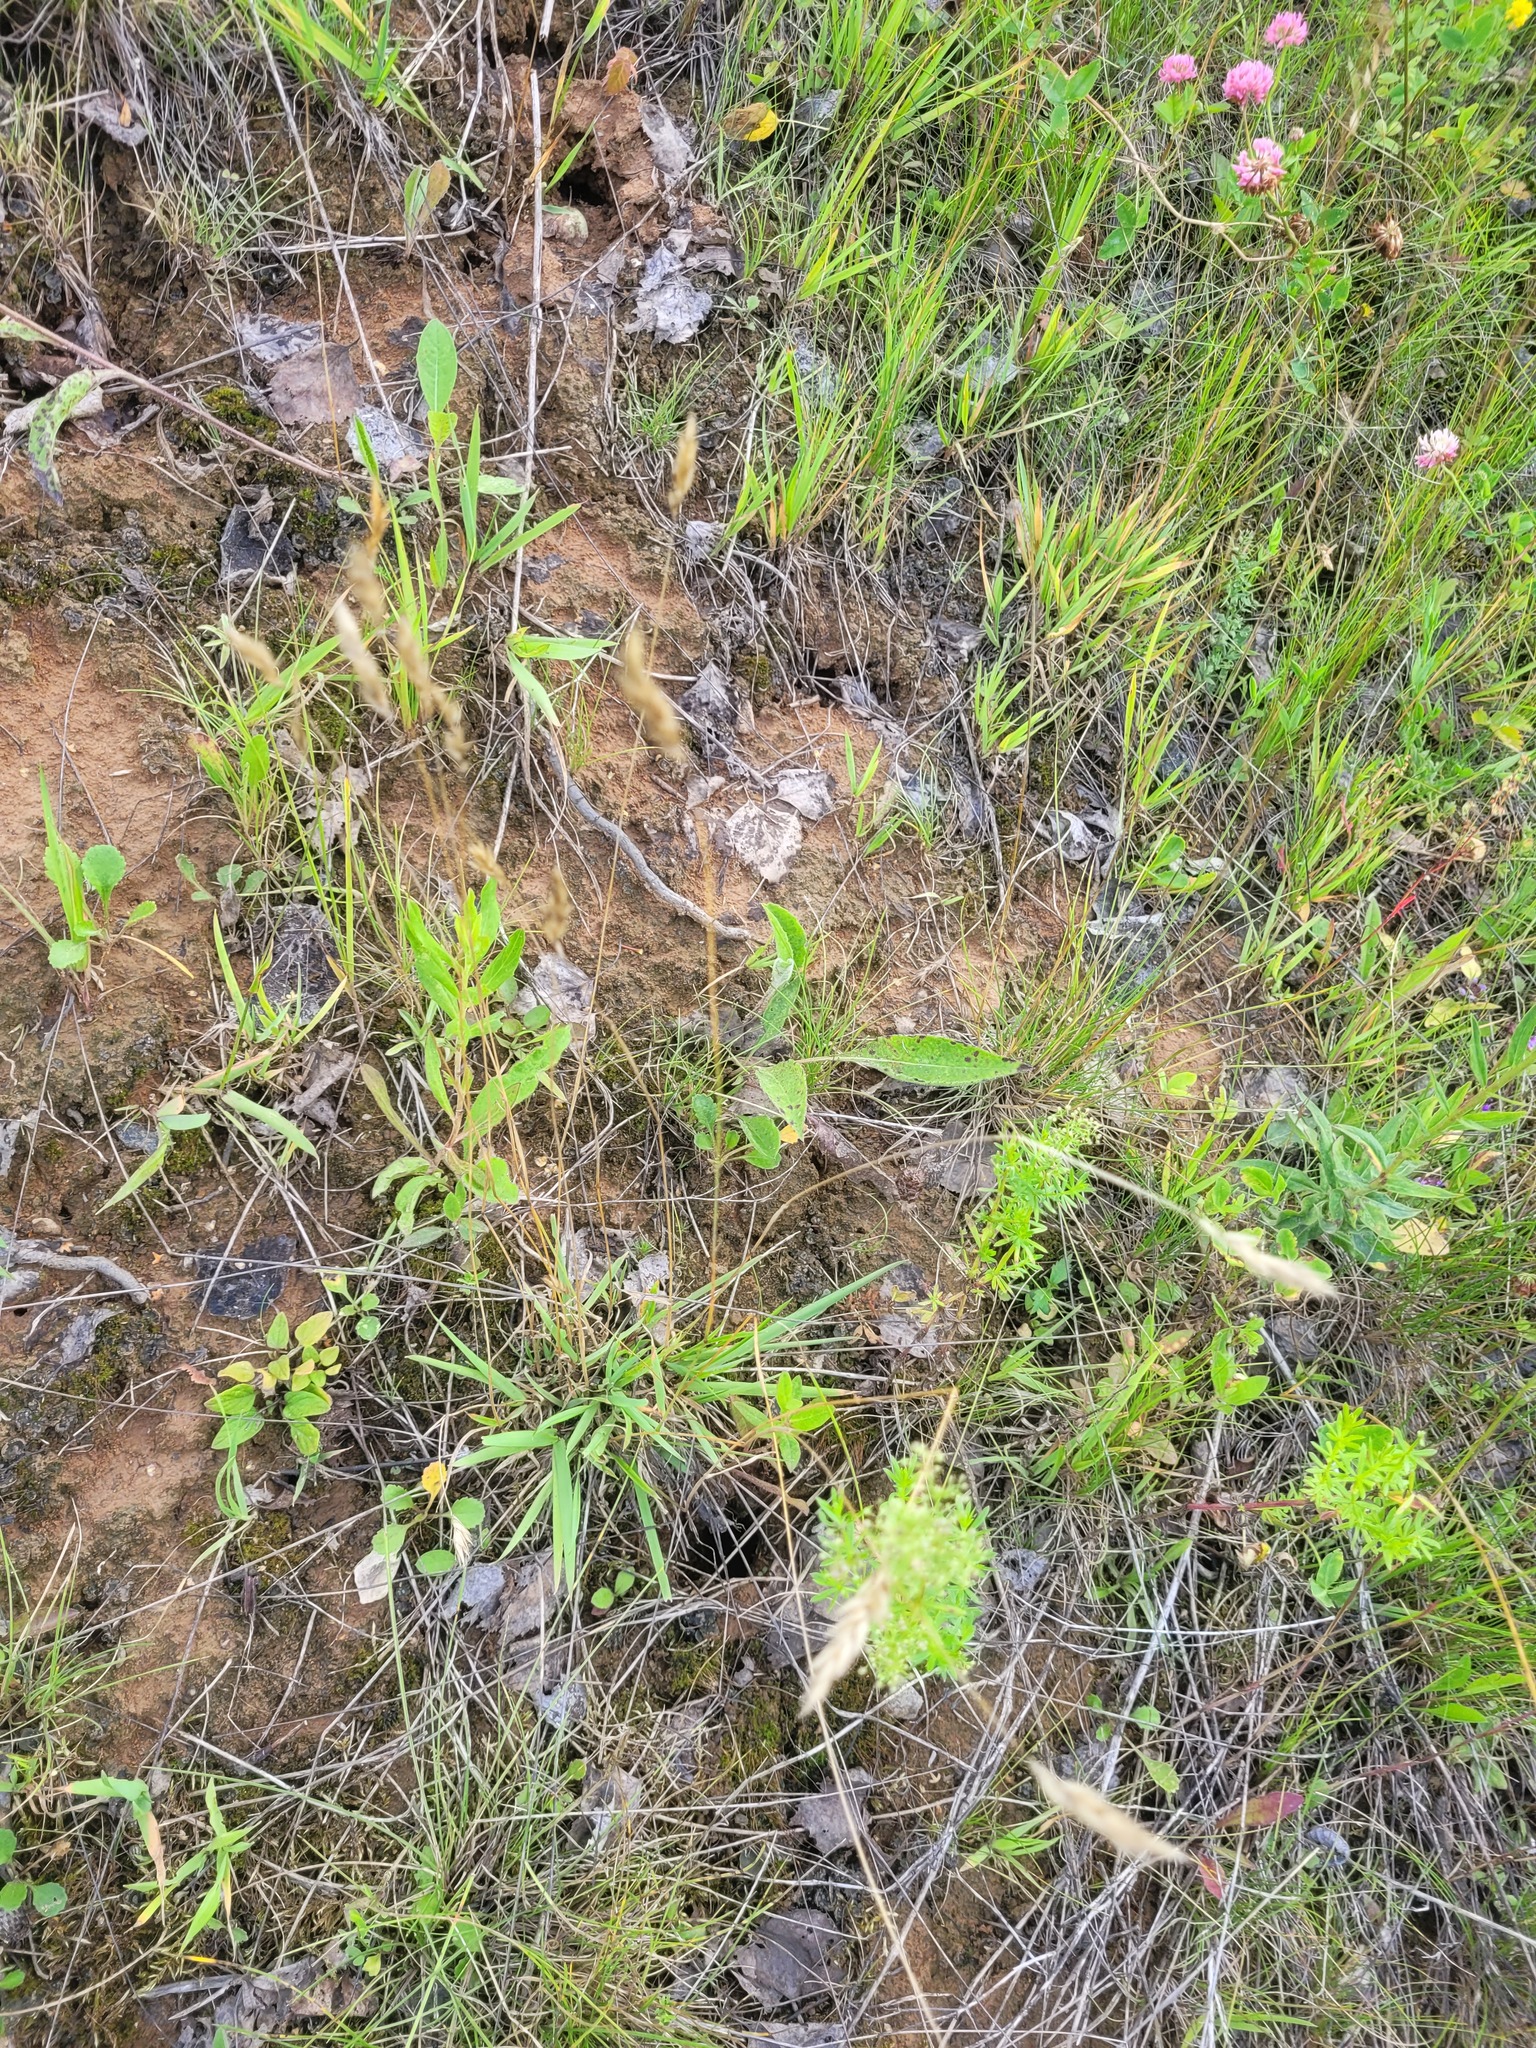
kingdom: Plantae
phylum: Tracheophyta
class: Liliopsida
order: Poales
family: Poaceae
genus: Anthoxanthum
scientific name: Anthoxanthum odoratum
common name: Sweet vernalgrass
